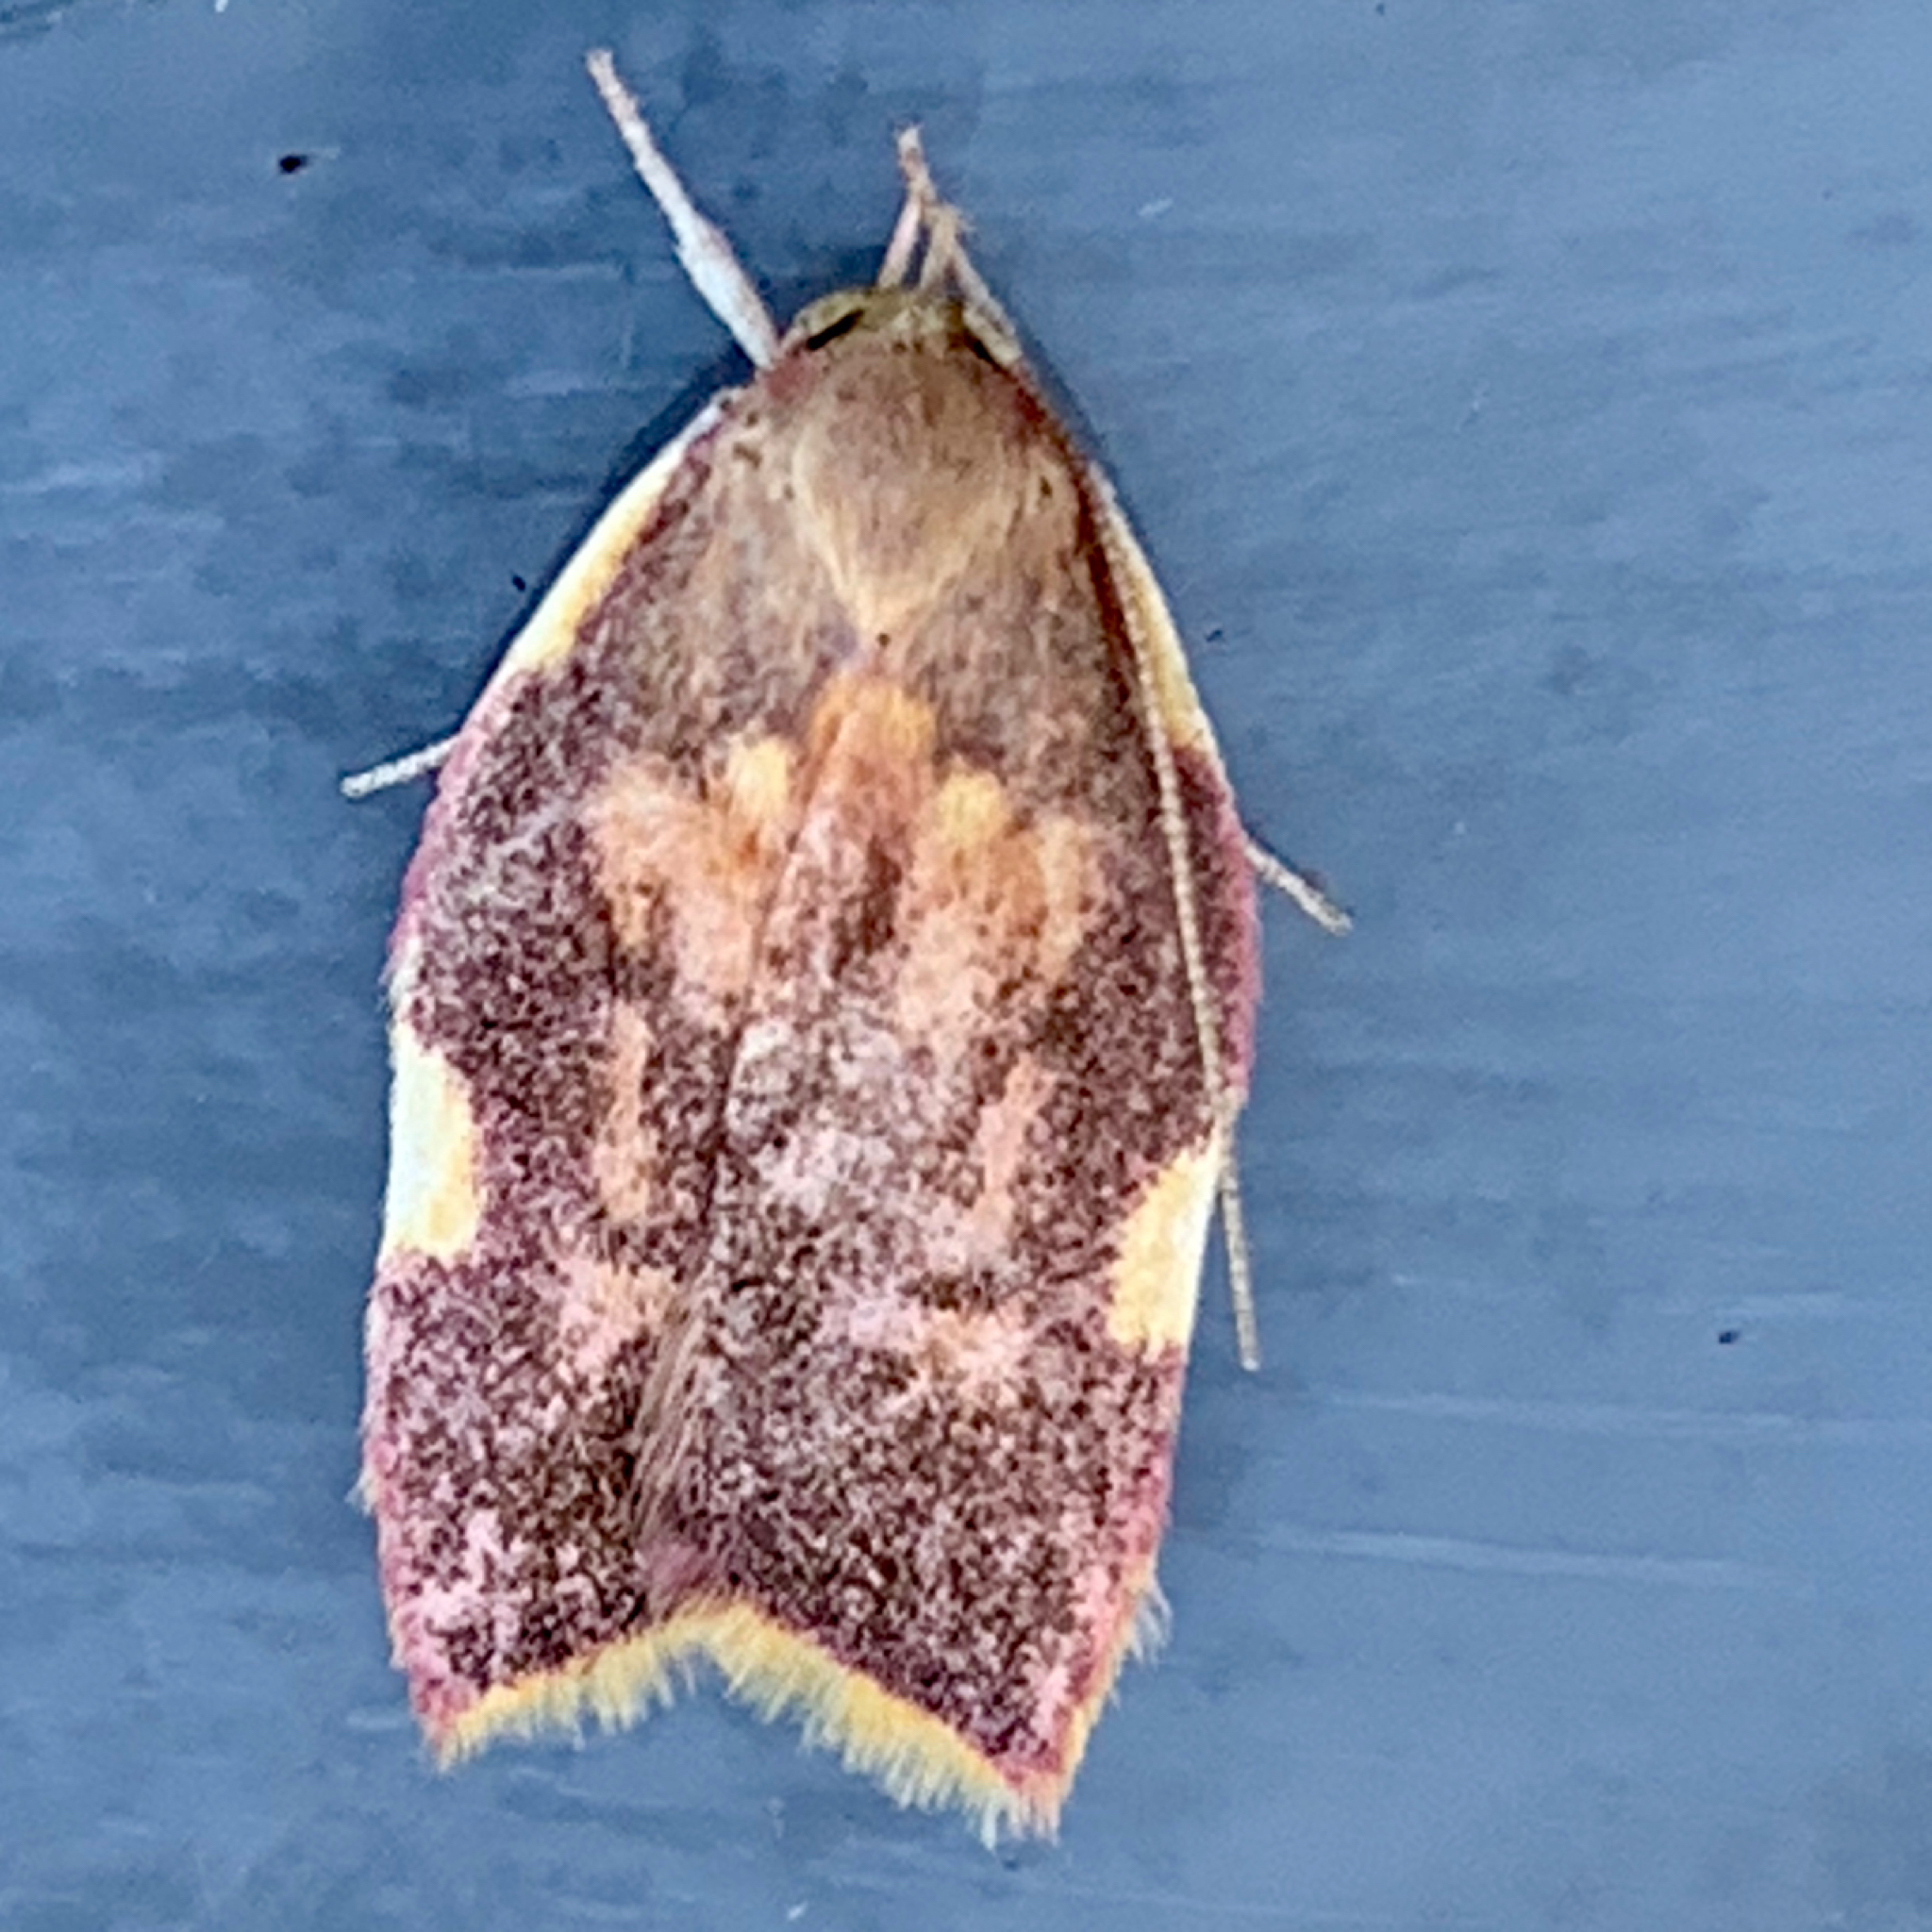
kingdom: Animalia
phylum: Arthropoda
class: Insecta
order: Lepidoptera
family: Peleopodidae
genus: Carcina
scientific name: Carcina quercana
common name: Moth
